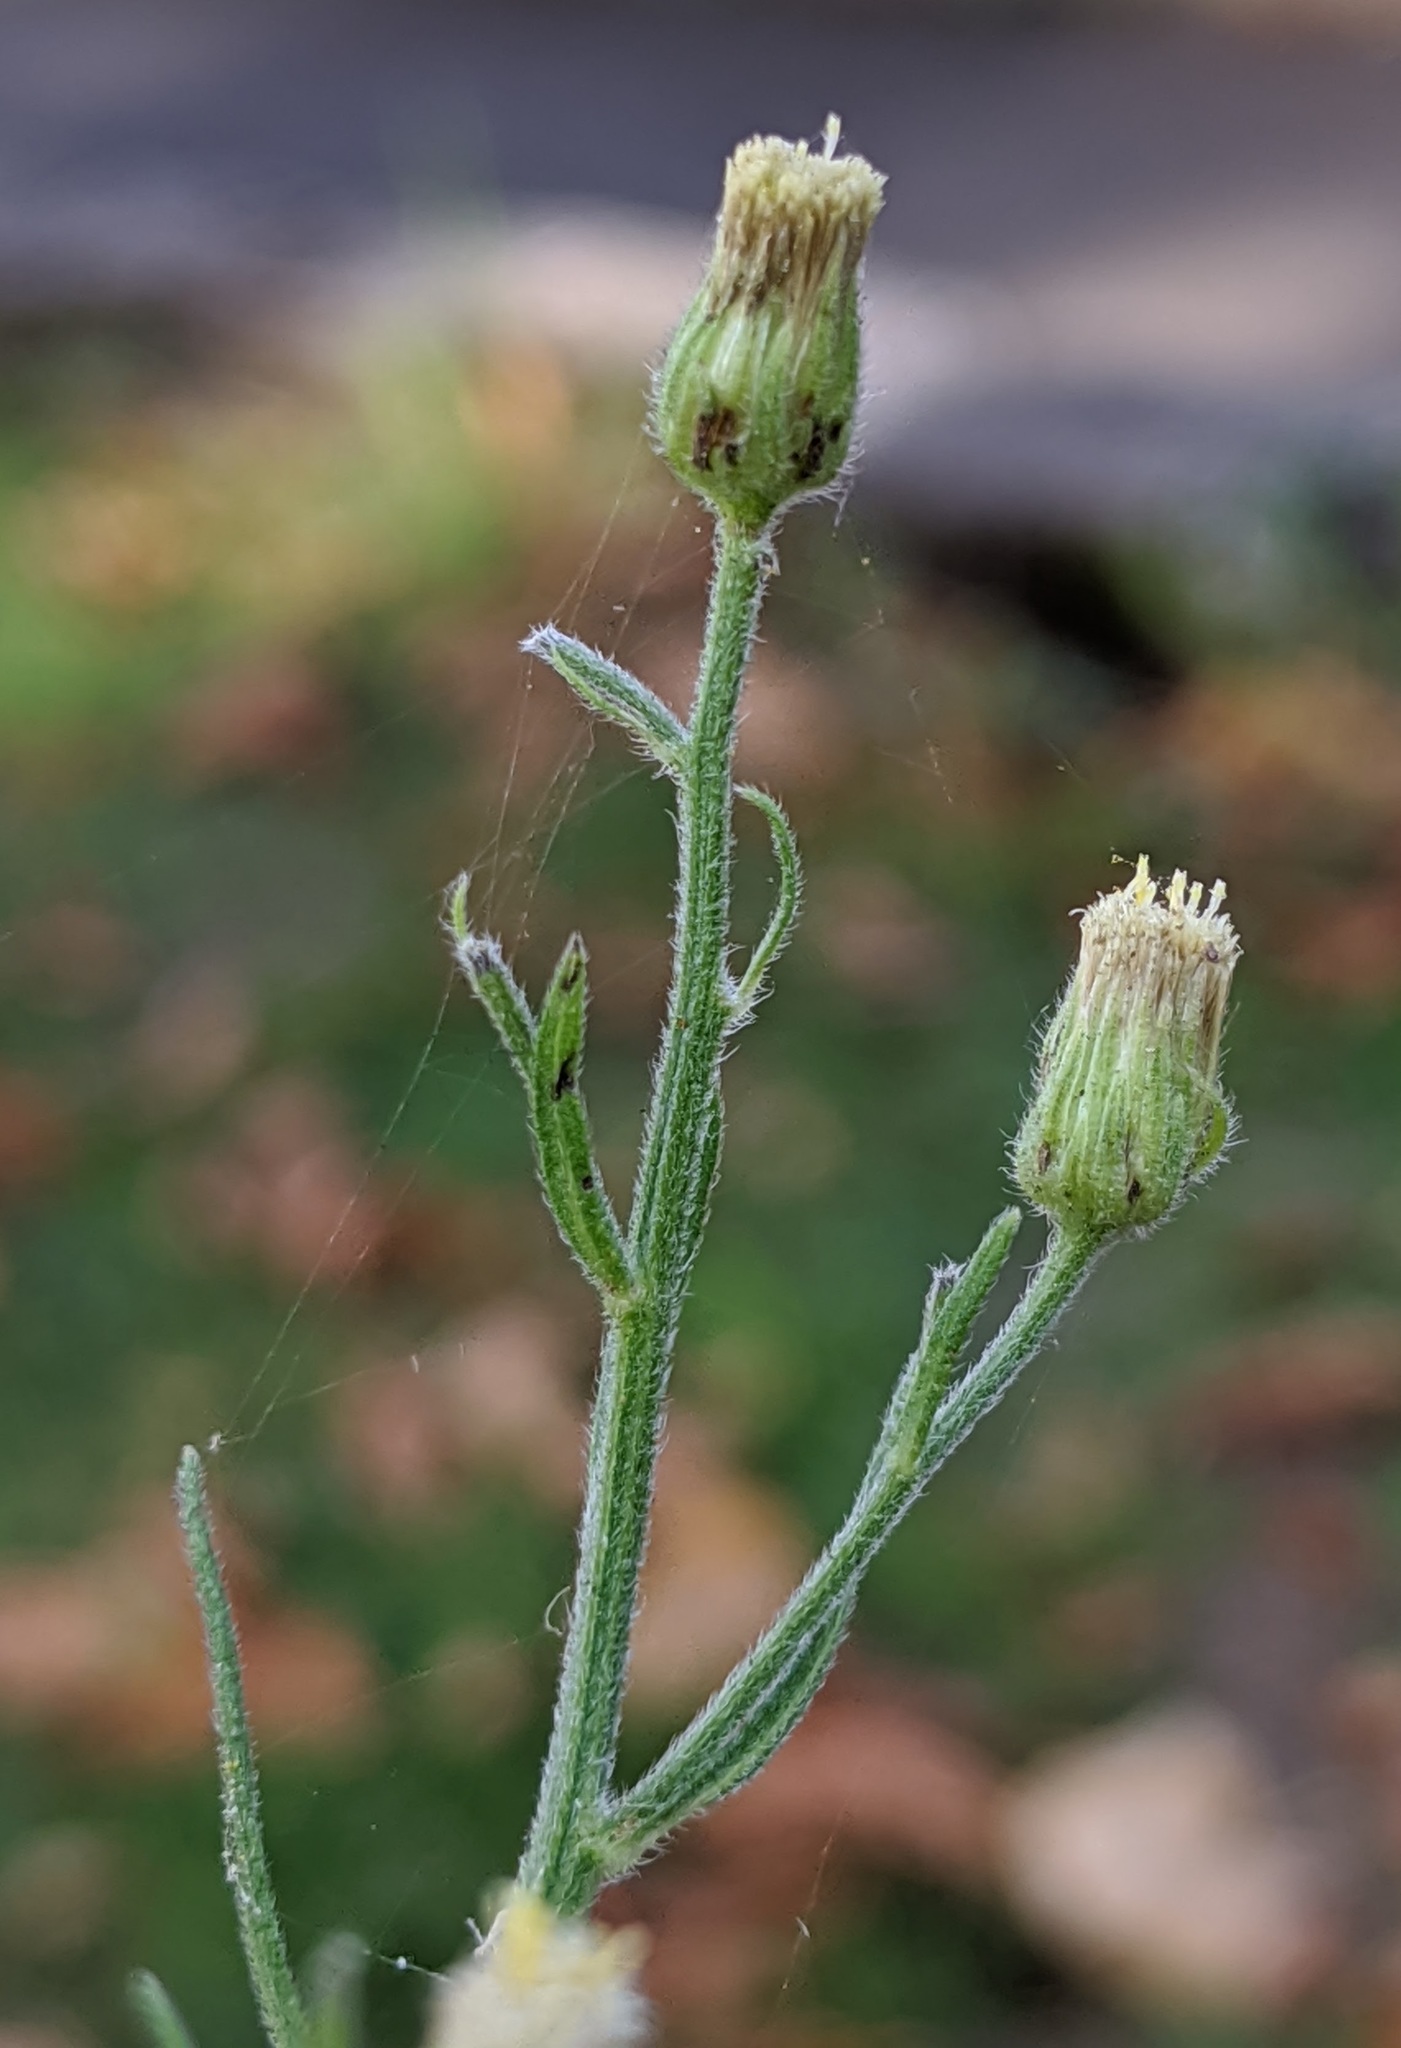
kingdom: Plantae
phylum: Tracheophyta
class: Magnoliopsida
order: Asterales
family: Asteraceae
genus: Erigeron
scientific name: Erigeron sumatrensis
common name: Daisy
